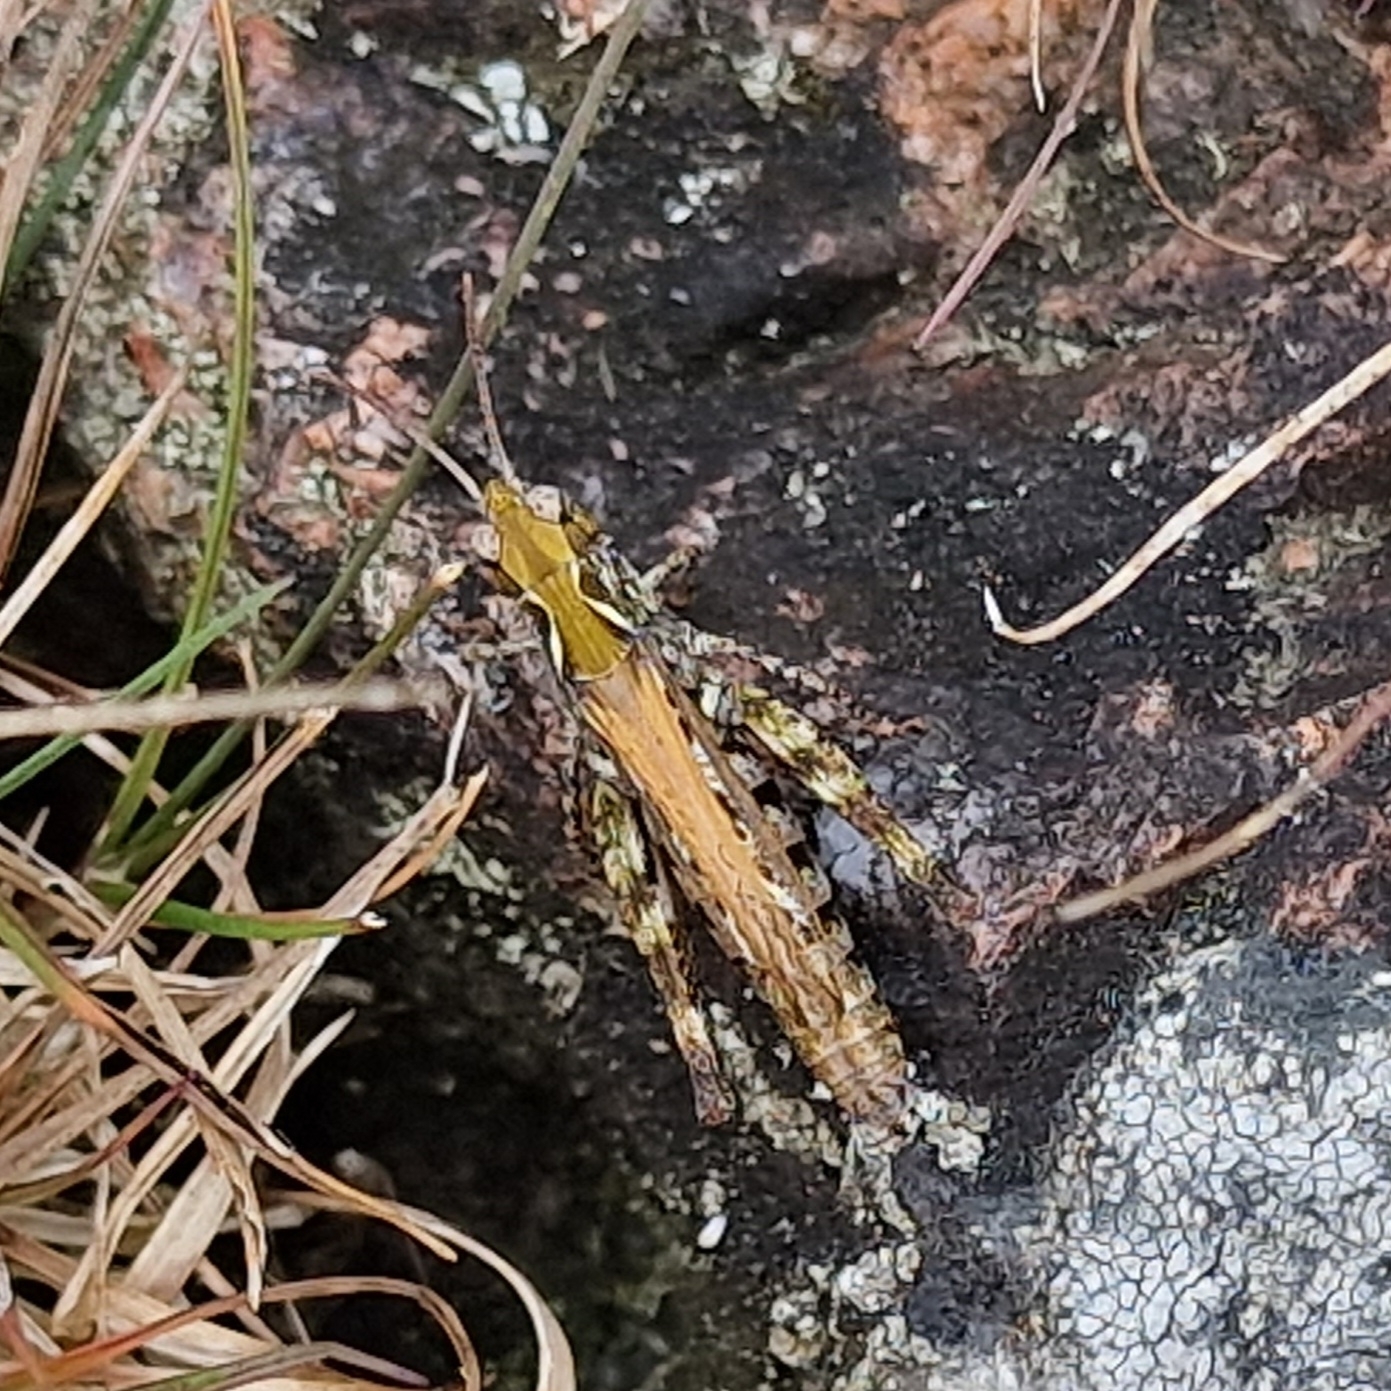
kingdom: Animalia
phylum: Arthropoda
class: Insecta
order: Orthoptera
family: Acrididae
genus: Myrmeleotettix
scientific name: Myrmeleotettix maculatus
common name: Mottled grasshopper
